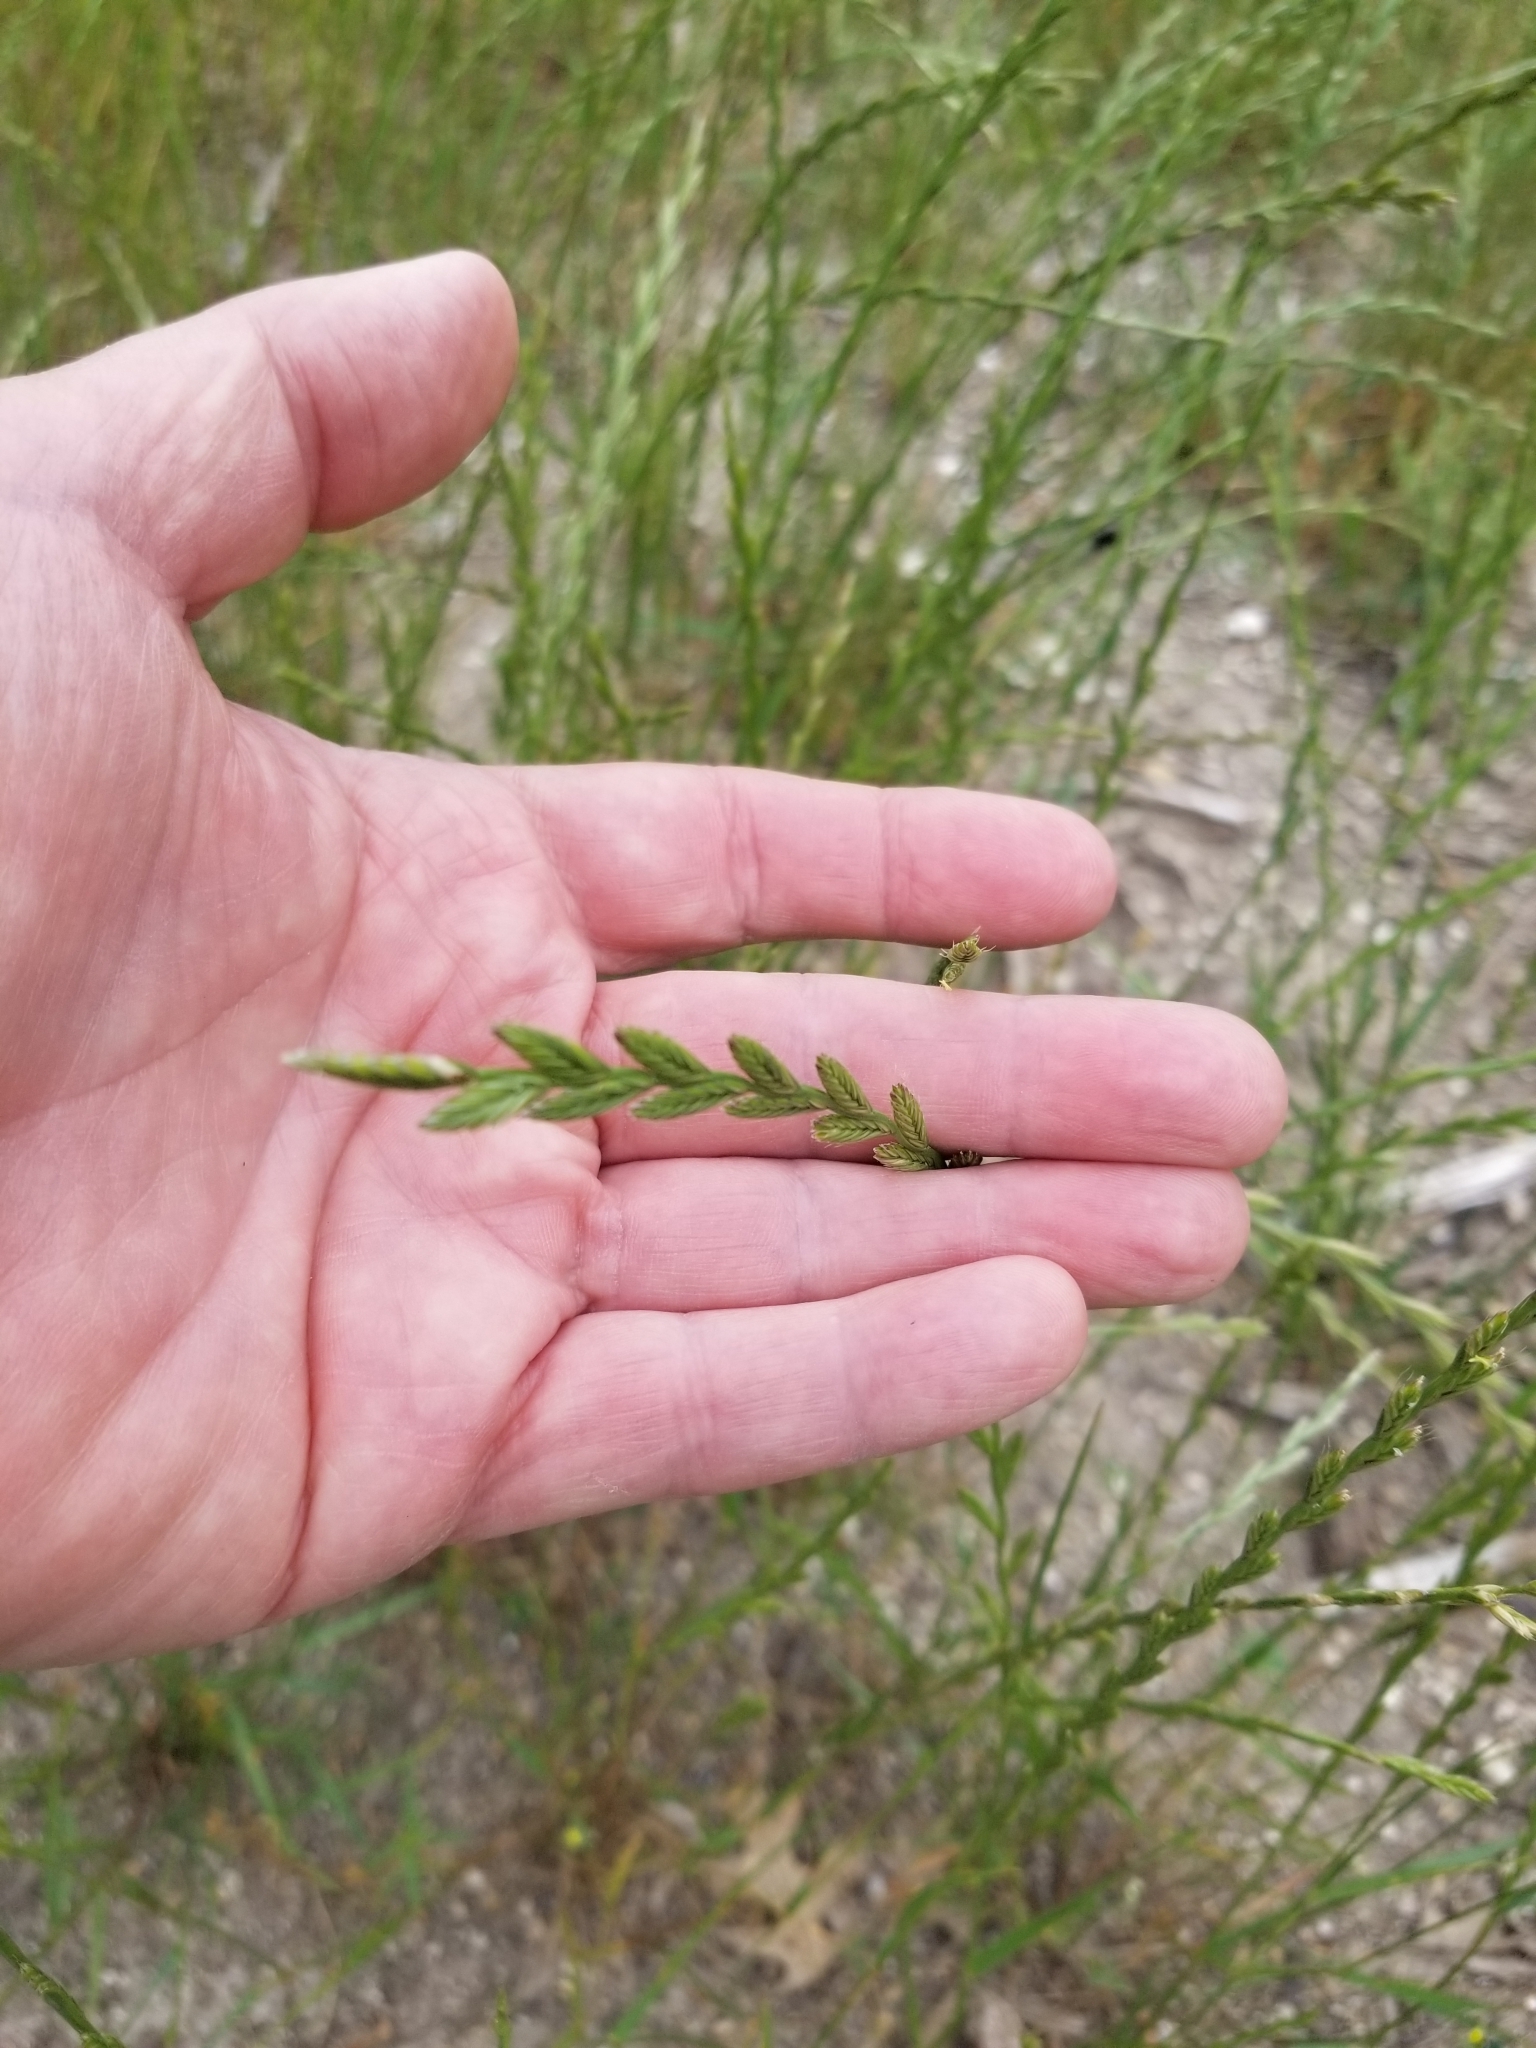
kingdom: Plantae
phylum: Tracheophyta
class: Liliopsida
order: Poales
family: Poaceae
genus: Lolium
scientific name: Lolium perenne
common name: Perennial ryegrass
